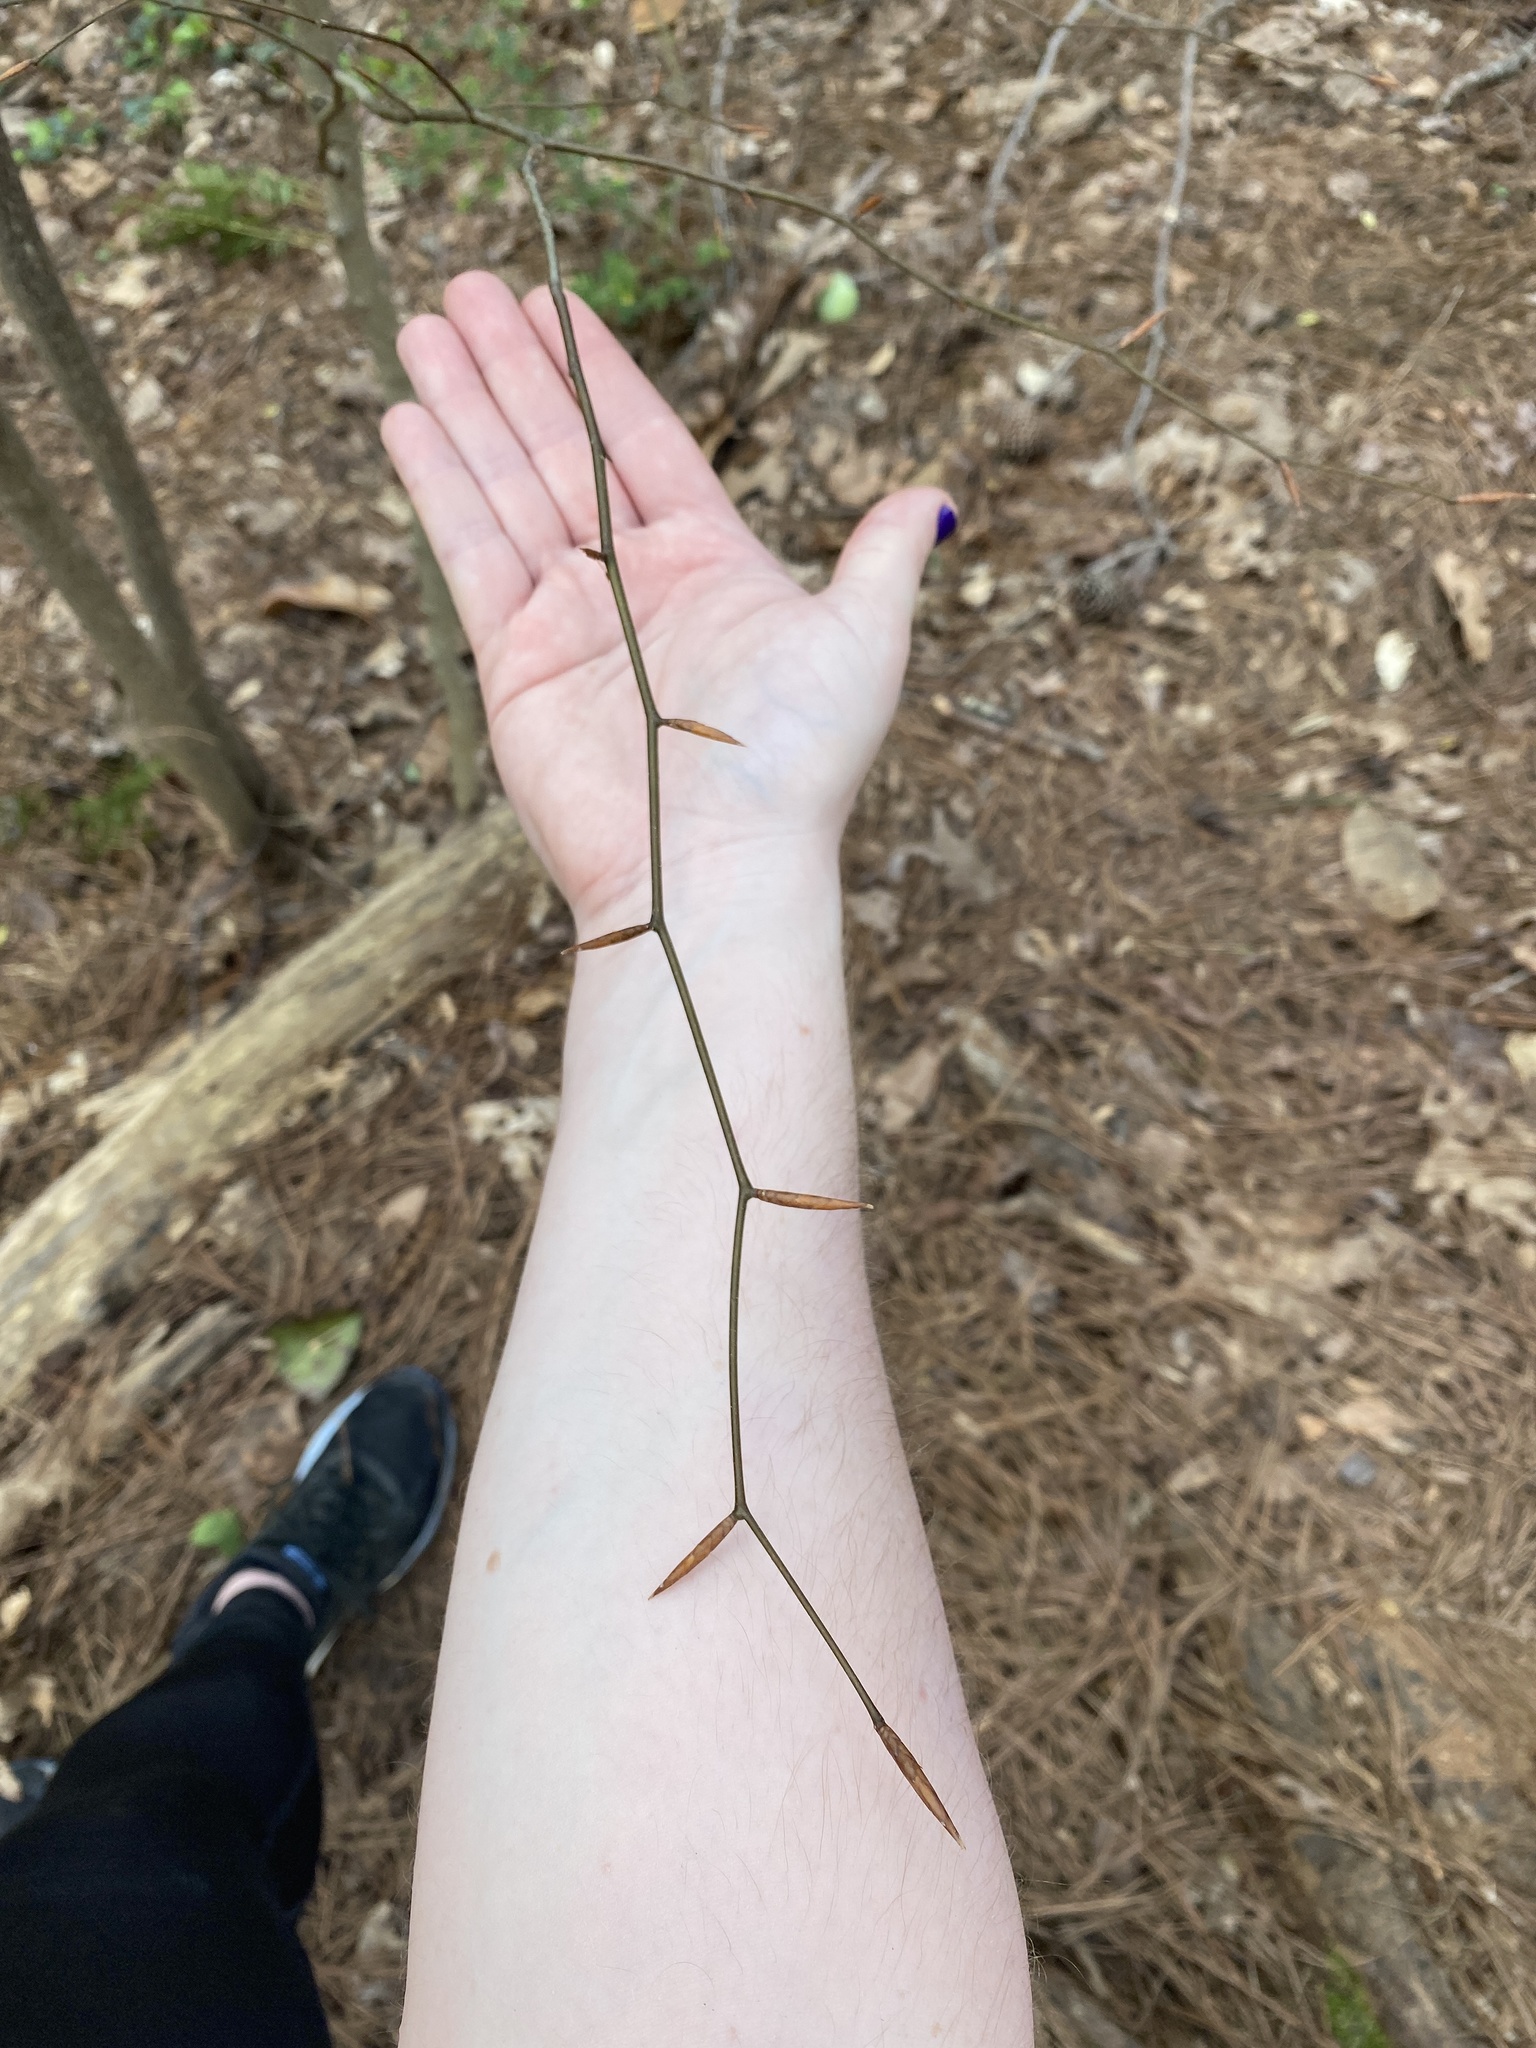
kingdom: Plantae
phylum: Tracheophyta
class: Magnoliopsida
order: Fagales
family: Fagaceae
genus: Fagus
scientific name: Fagus grandifolia
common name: American beech
